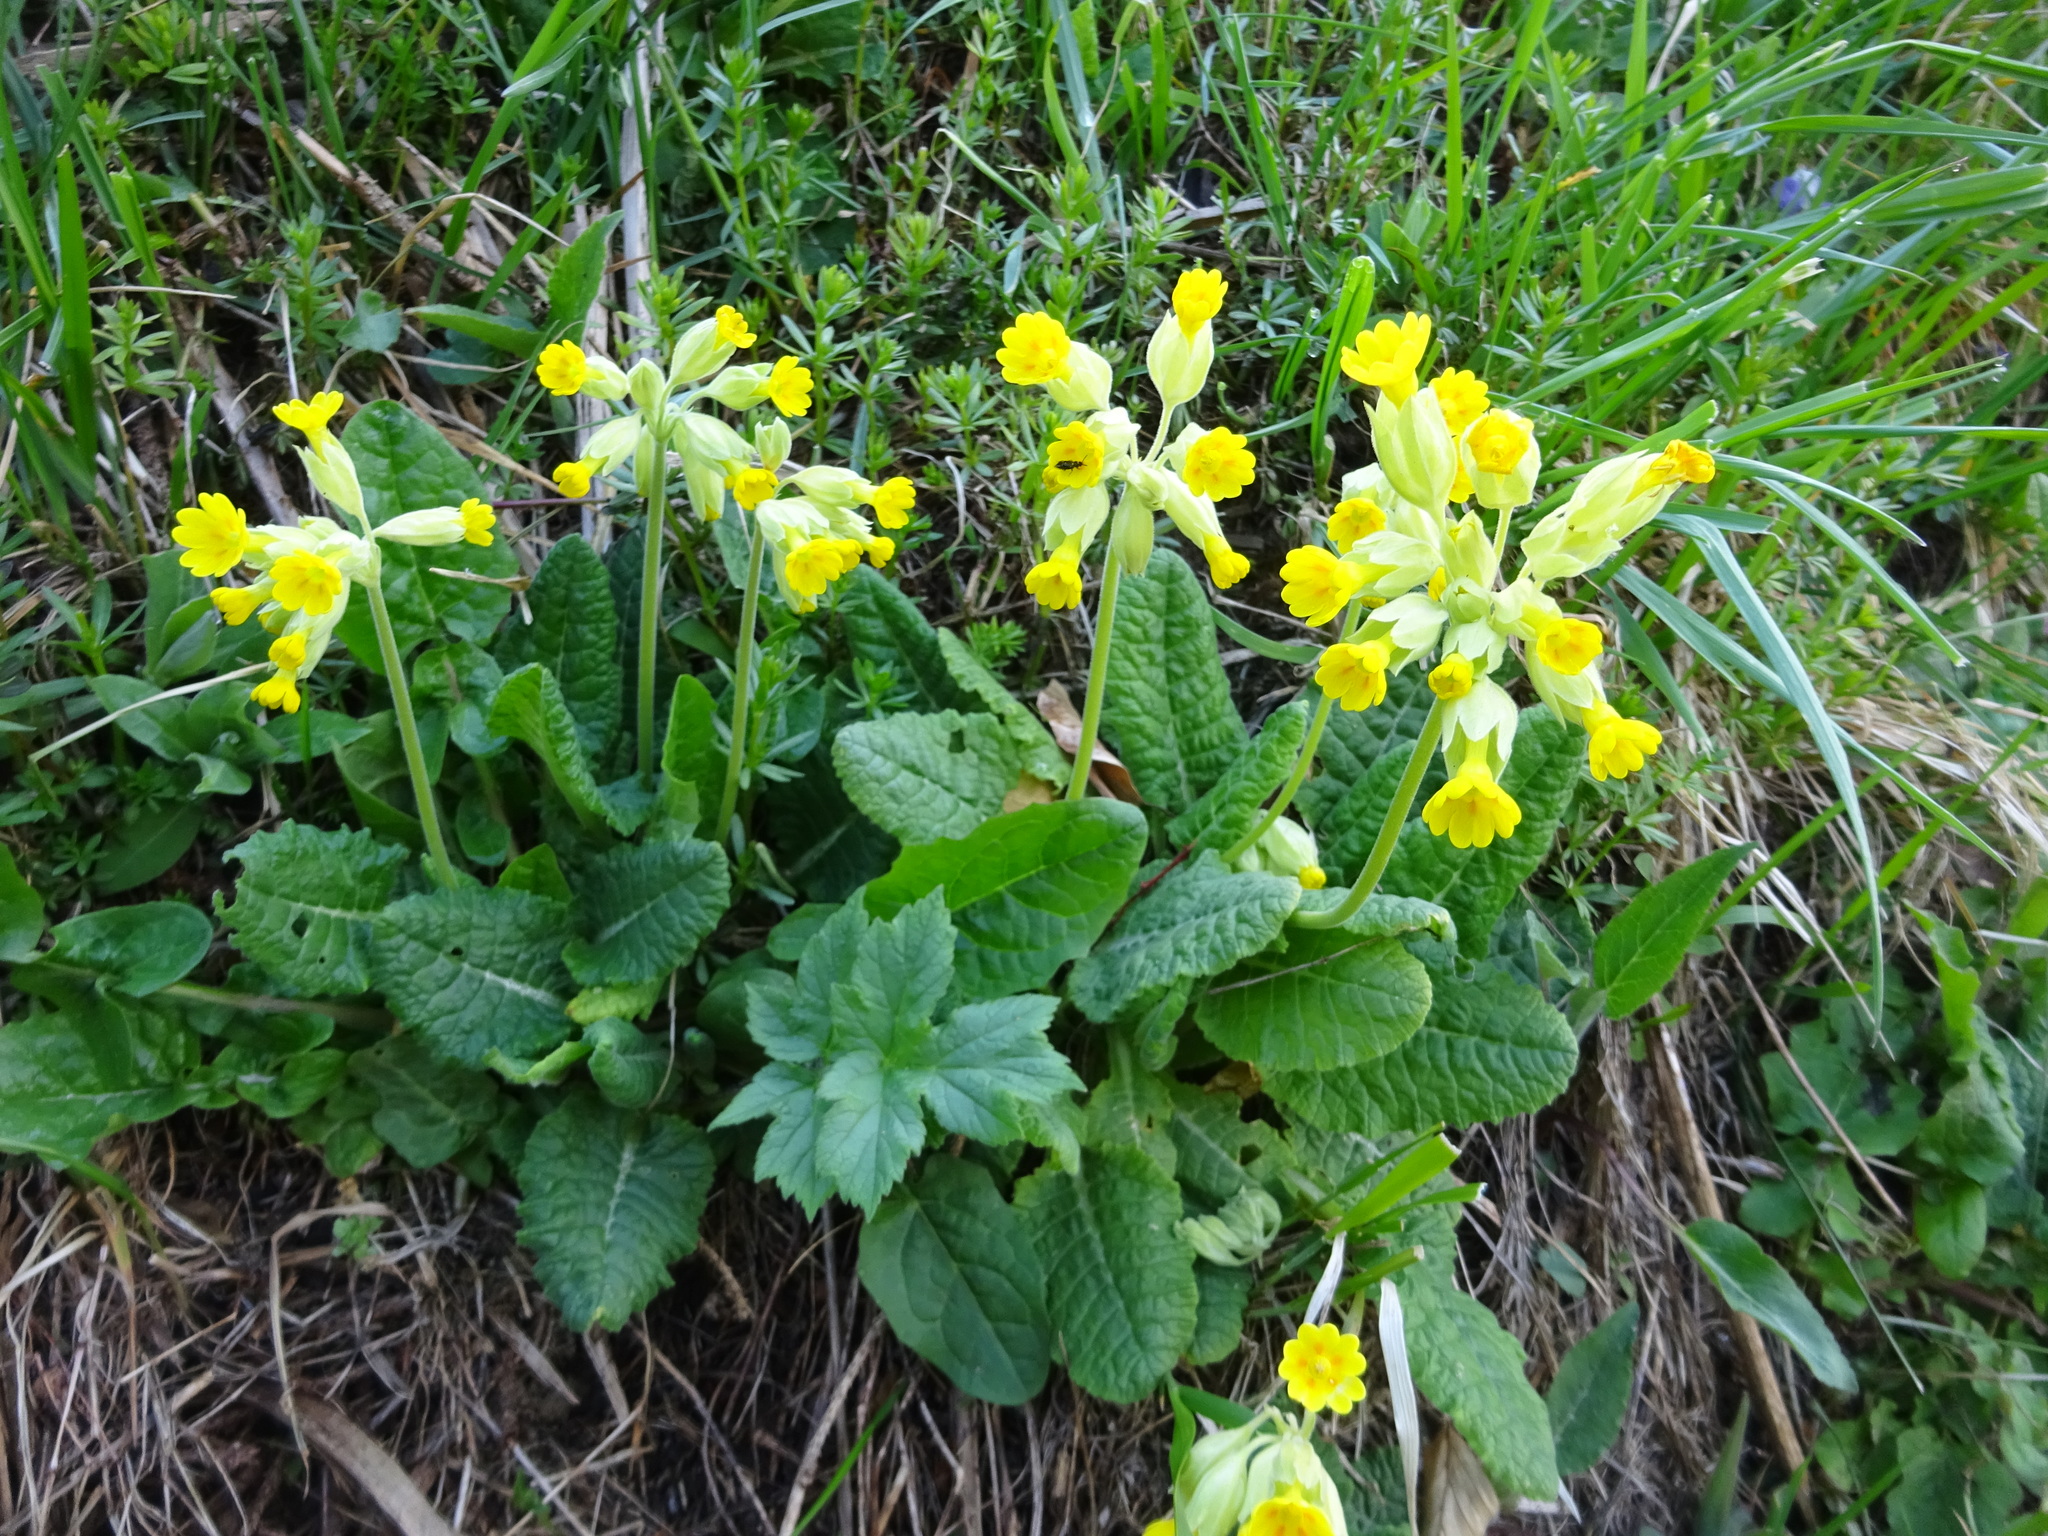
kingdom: Plantae
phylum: Tracheophyta
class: Magnoliopsida
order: Ericales
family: Primulaceae
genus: Primula
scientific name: Primula veris
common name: Cowslip
